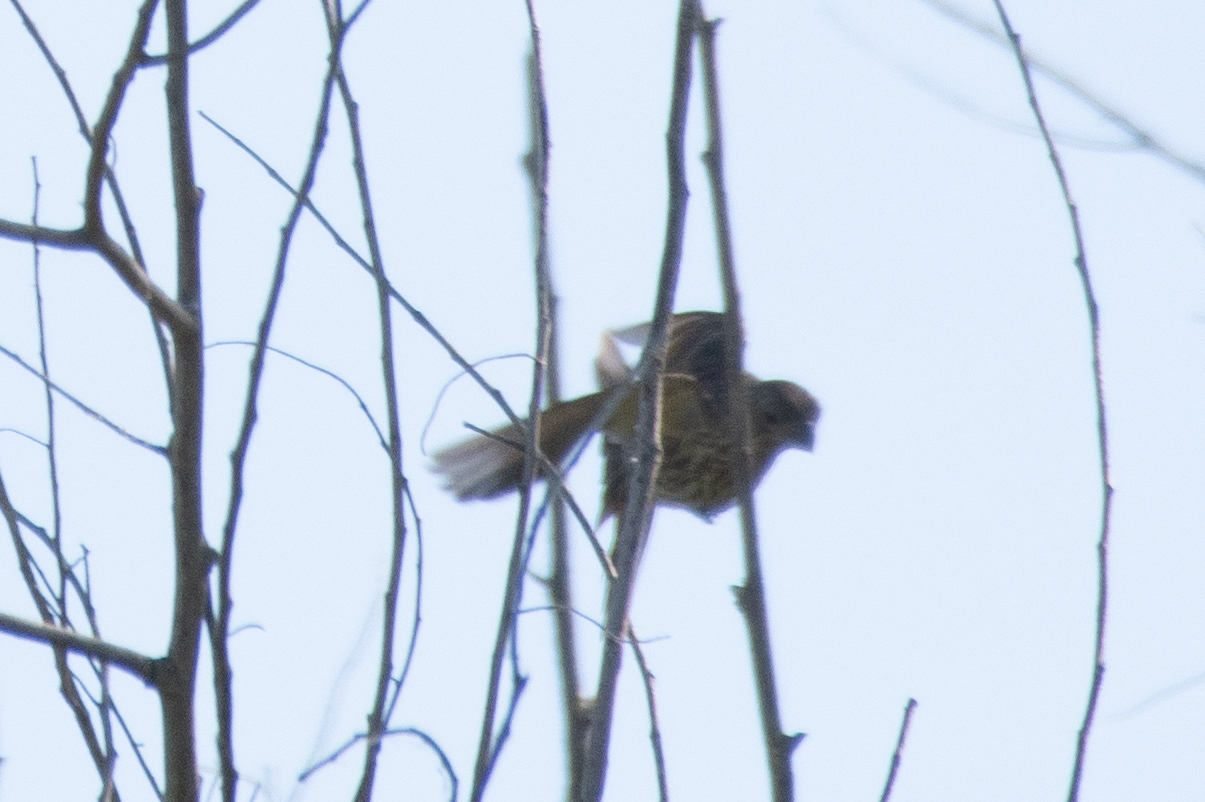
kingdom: Animalia
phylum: Chordata
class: Aves
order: Passeriformes
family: Fringillidae
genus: Haemorhous
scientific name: Haemorhous mexicanus
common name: House finch
